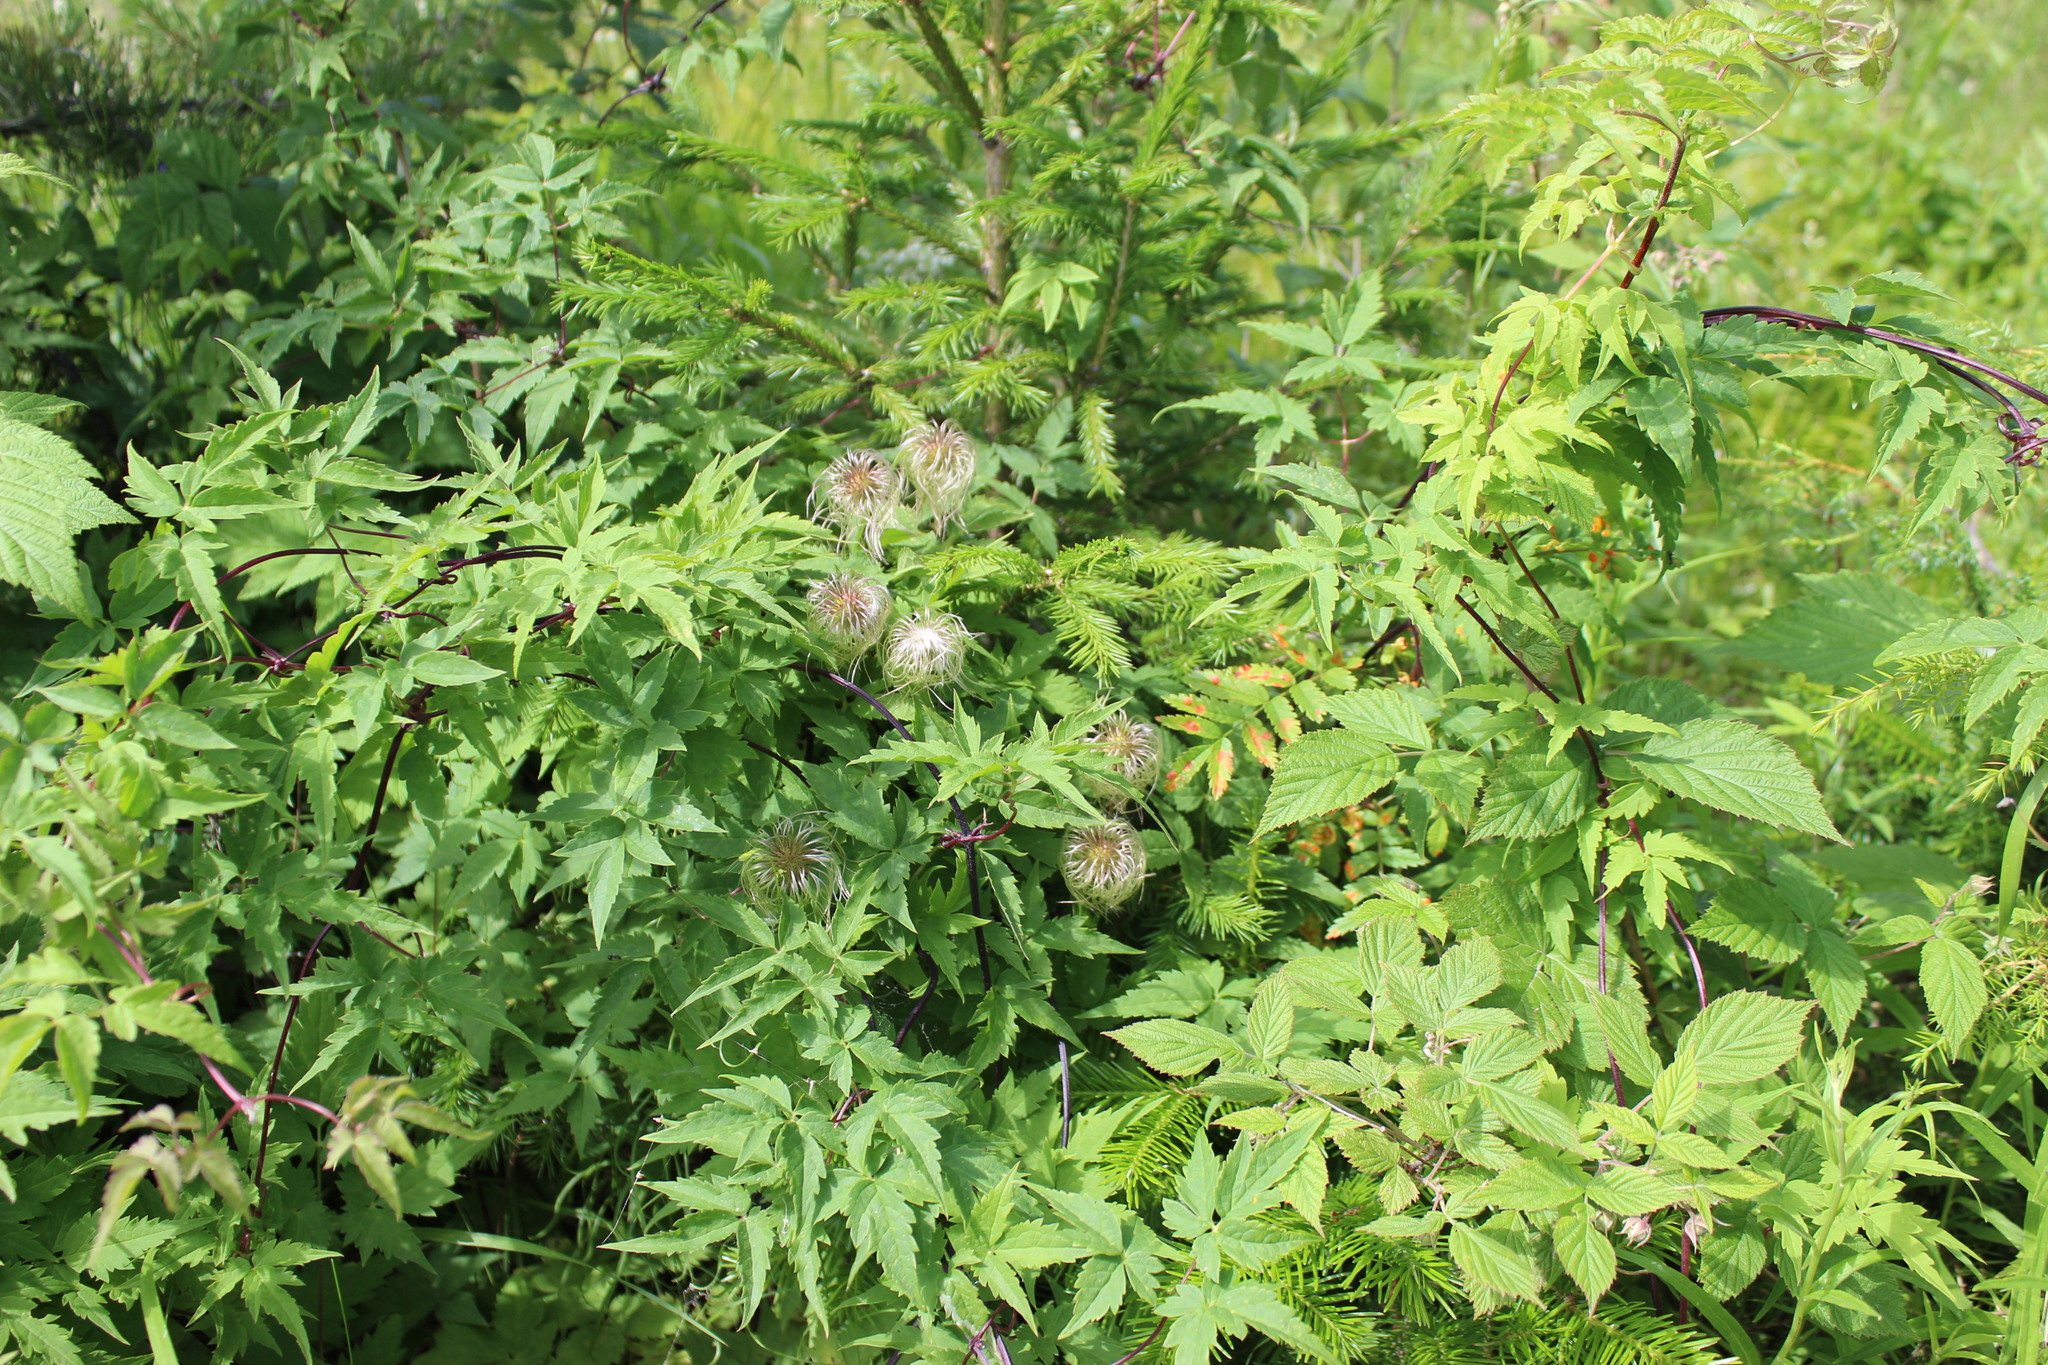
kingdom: Plantae
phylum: Tracheophyta
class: Magnoliopsida
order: Ranunculales
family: Ranunculaceae
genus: Clematis
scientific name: Clematis sibirica
